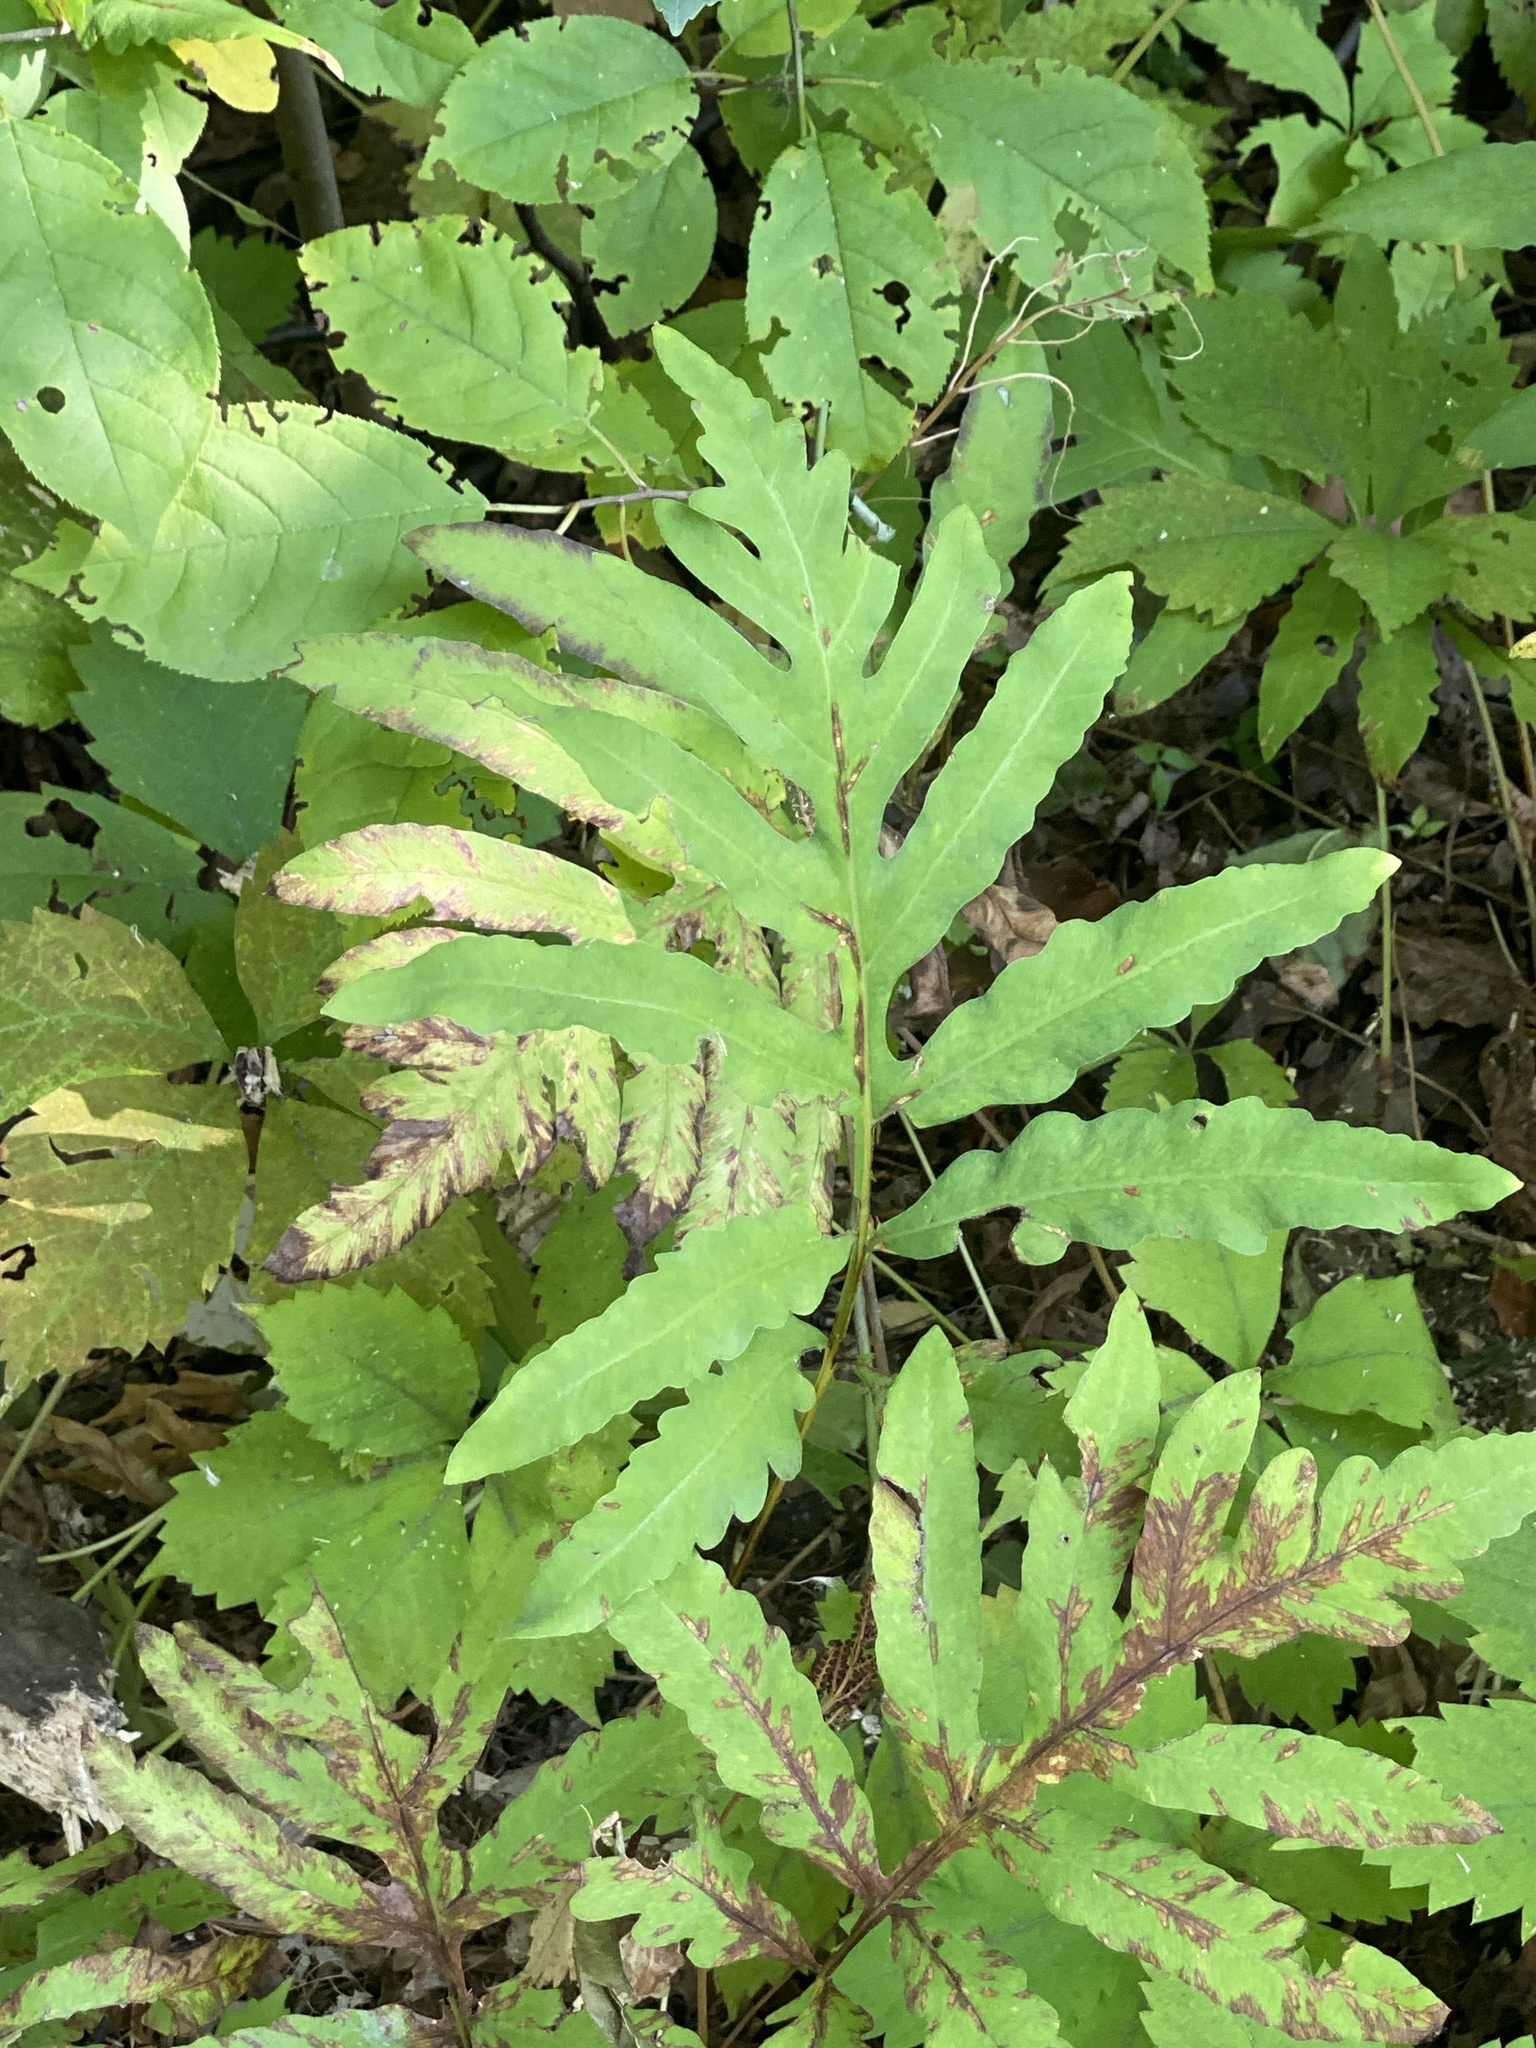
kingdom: Plantae
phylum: Tracheophyta
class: Polypodiopsida
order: Polypodiales
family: Onocleaceae
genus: Onoclea
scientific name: Onoclea sensibilis
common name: Sensitive fern
